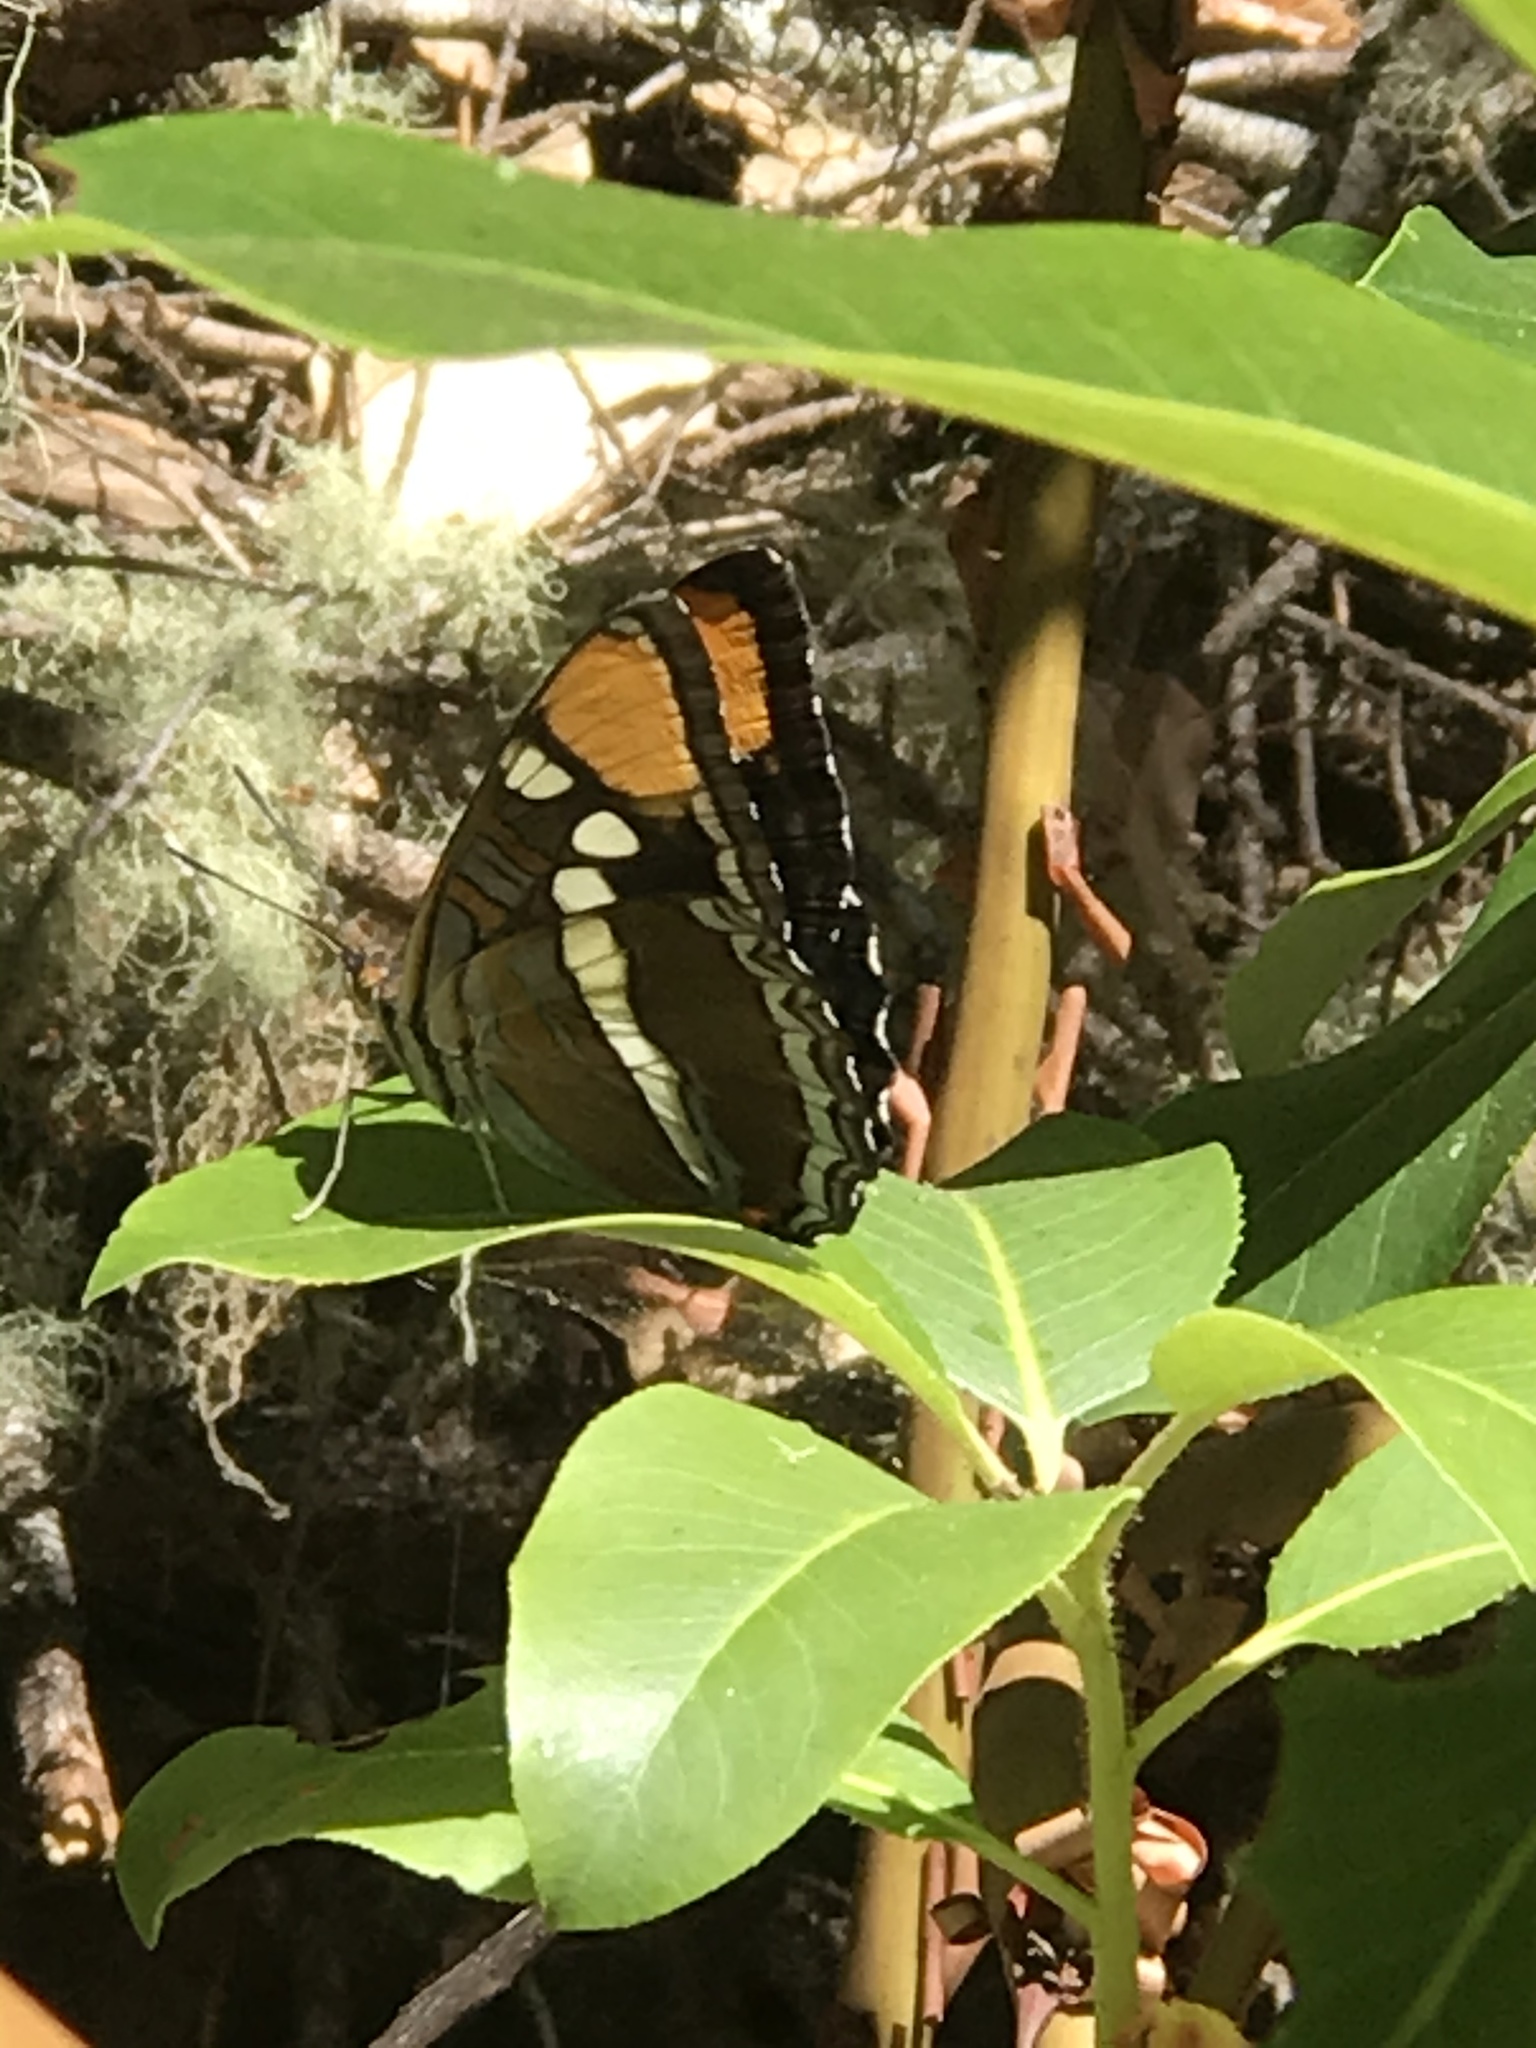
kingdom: Animalia
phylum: Arthropoda
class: Insecta
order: Lepidoptera
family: Nymphalidae
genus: Limenitis
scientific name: Limenitis bredowii
